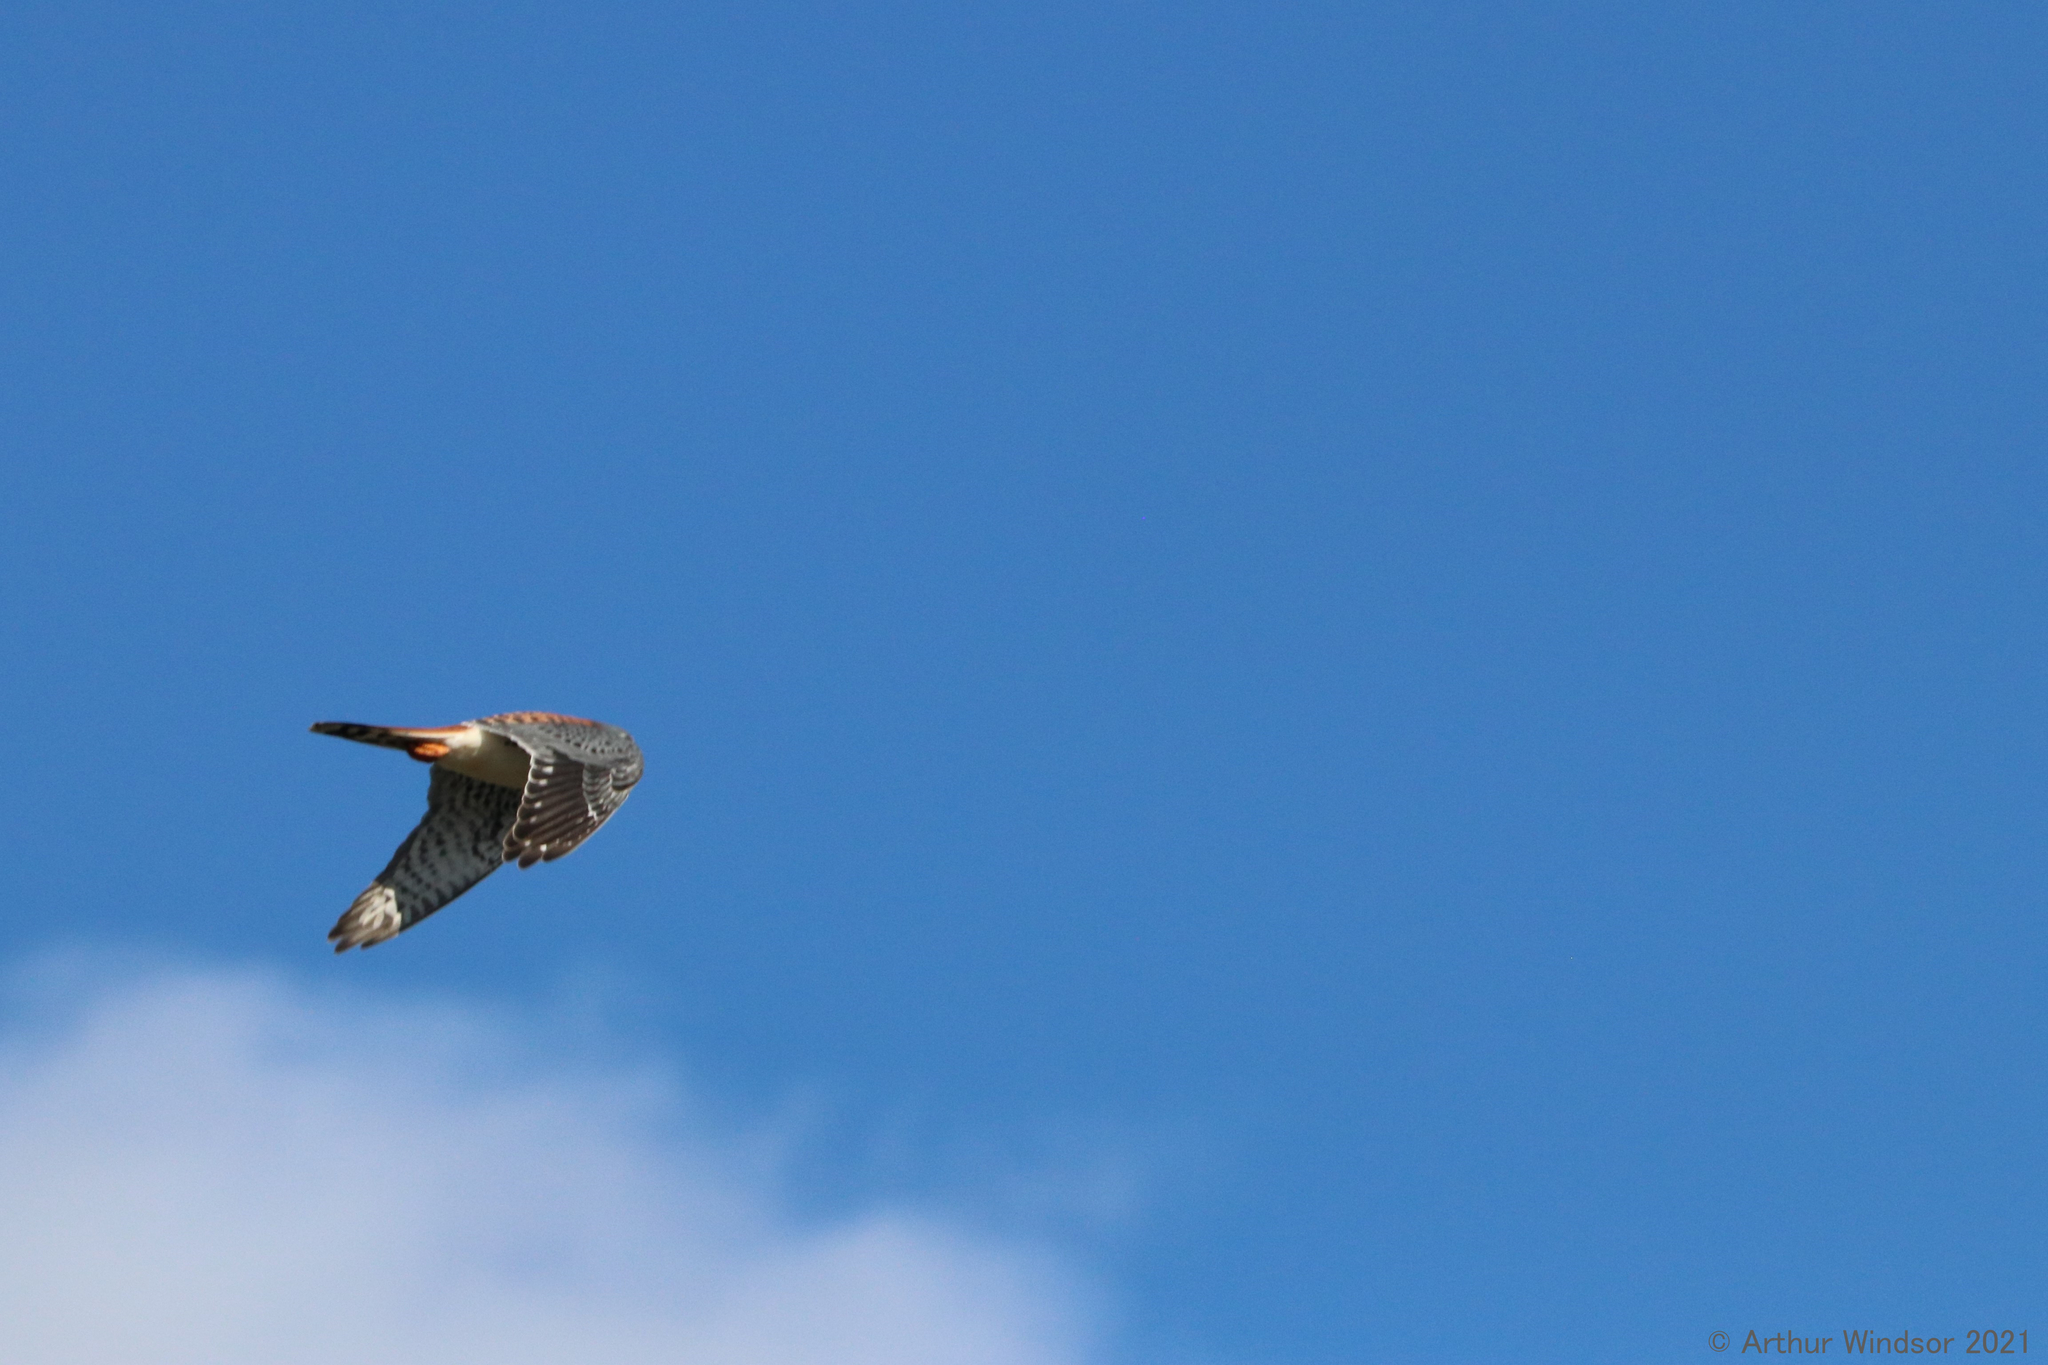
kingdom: Animalia
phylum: Chordata
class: Aves
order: Falconiformes
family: Falconidae
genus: Falco
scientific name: Falco sparverius
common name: American kestrel
